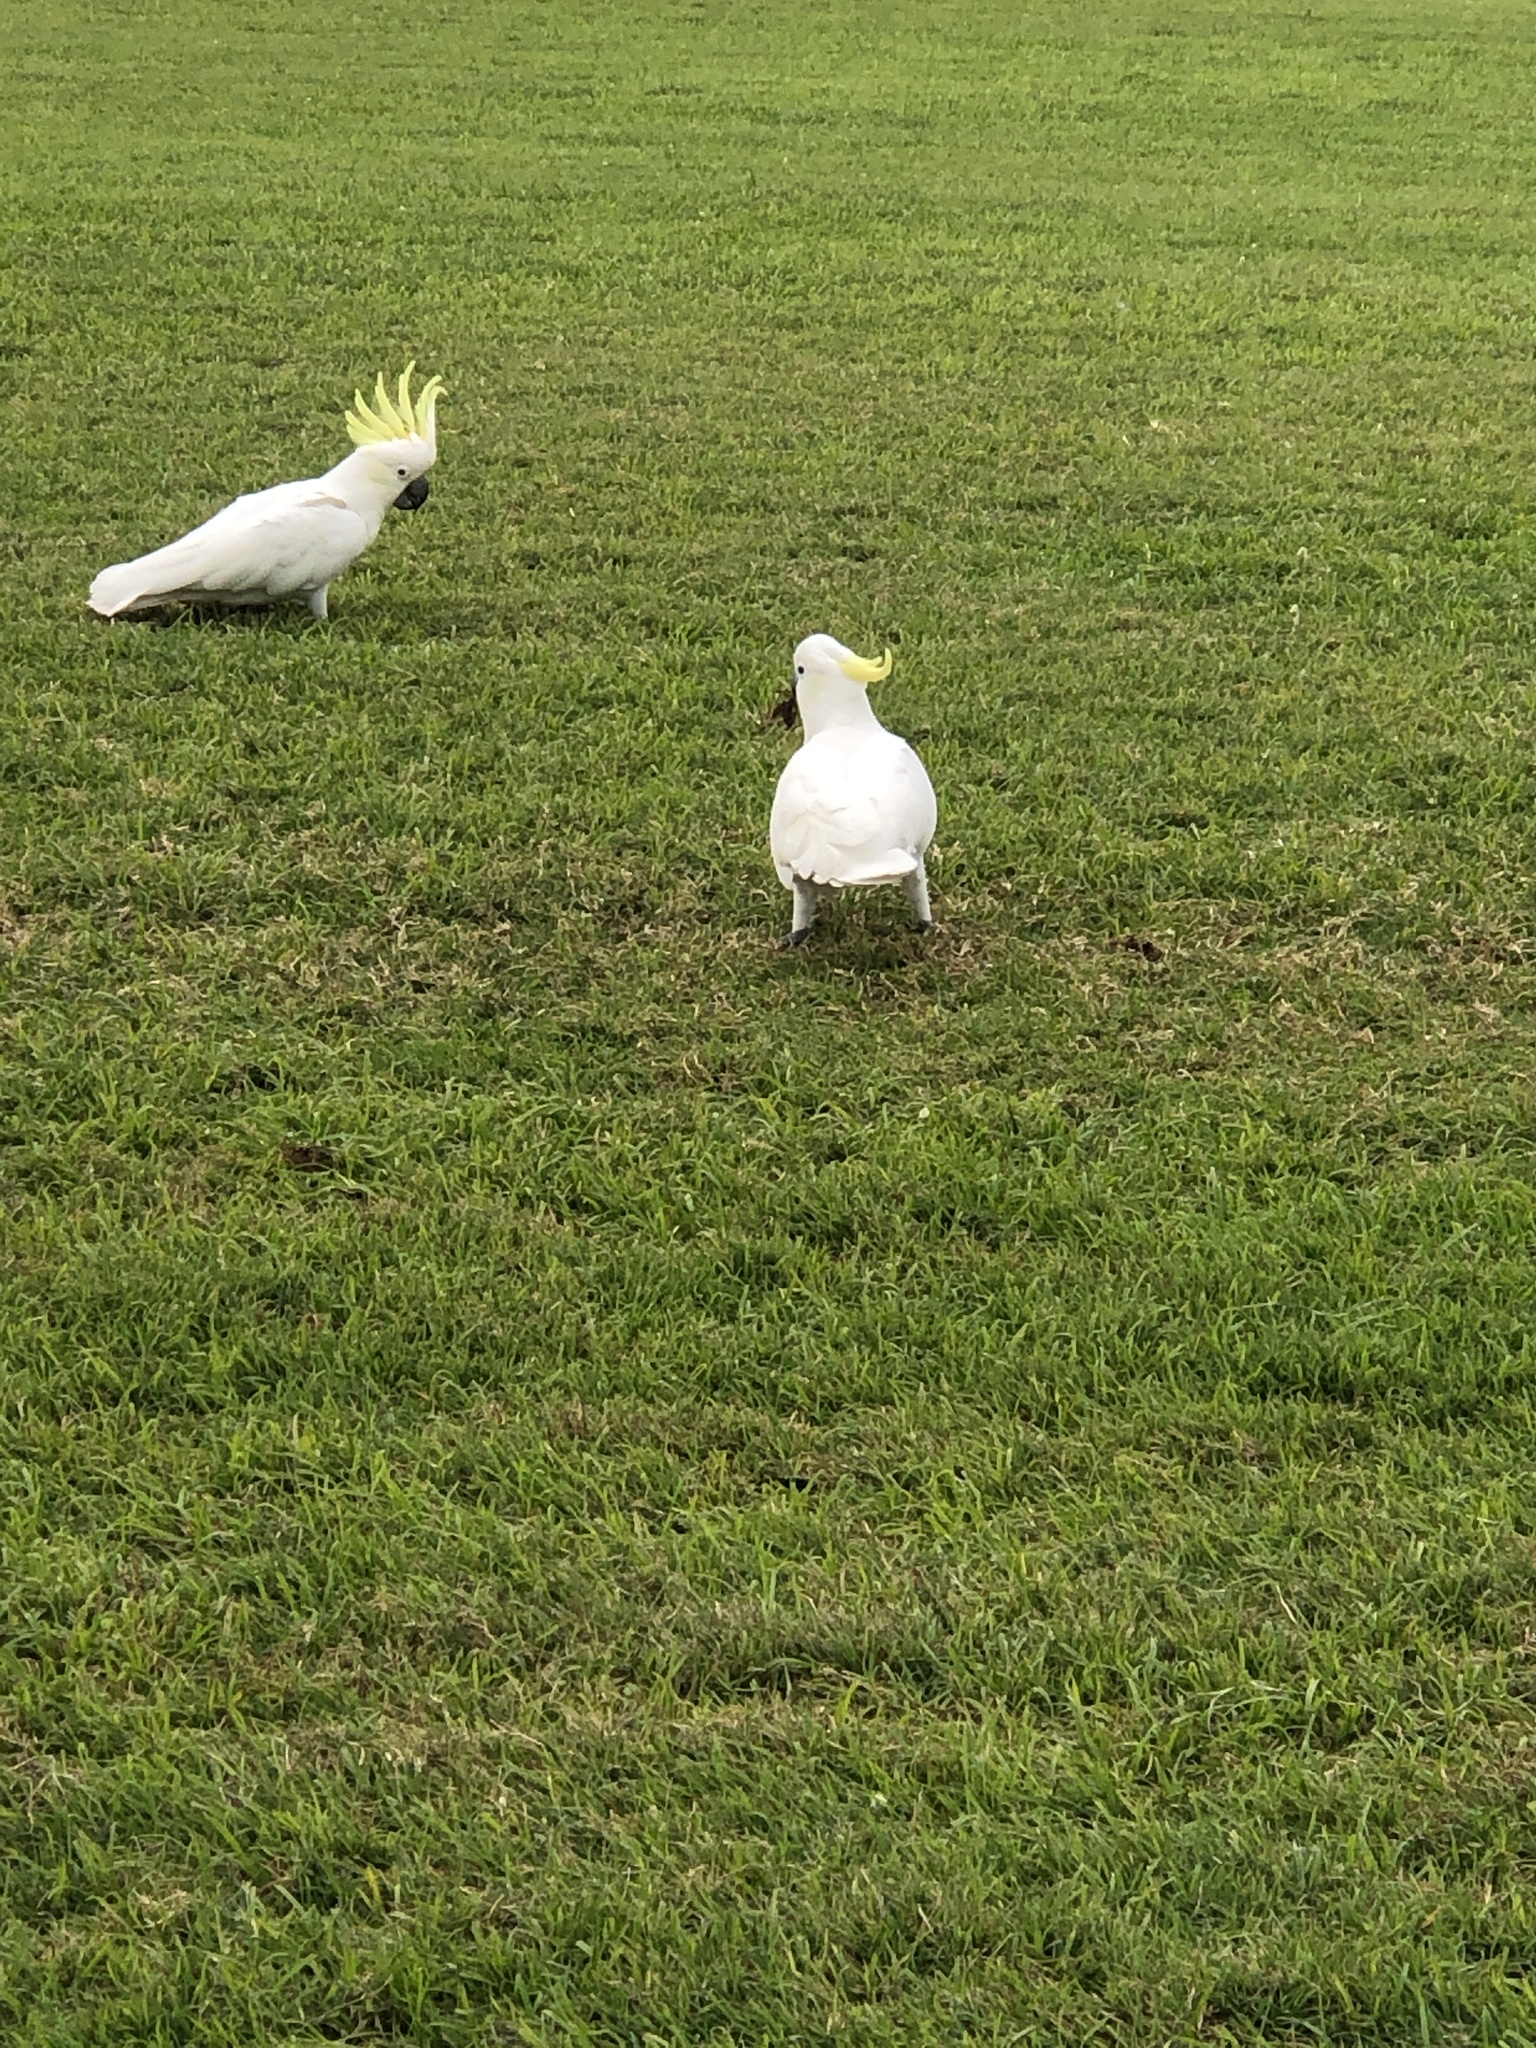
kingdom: Animalia
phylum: Chordata
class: Aves
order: Psittaciformes
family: Psittacidae
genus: Cacatua
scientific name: Cacatua galerita
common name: Sulphur-crested cockatoo
